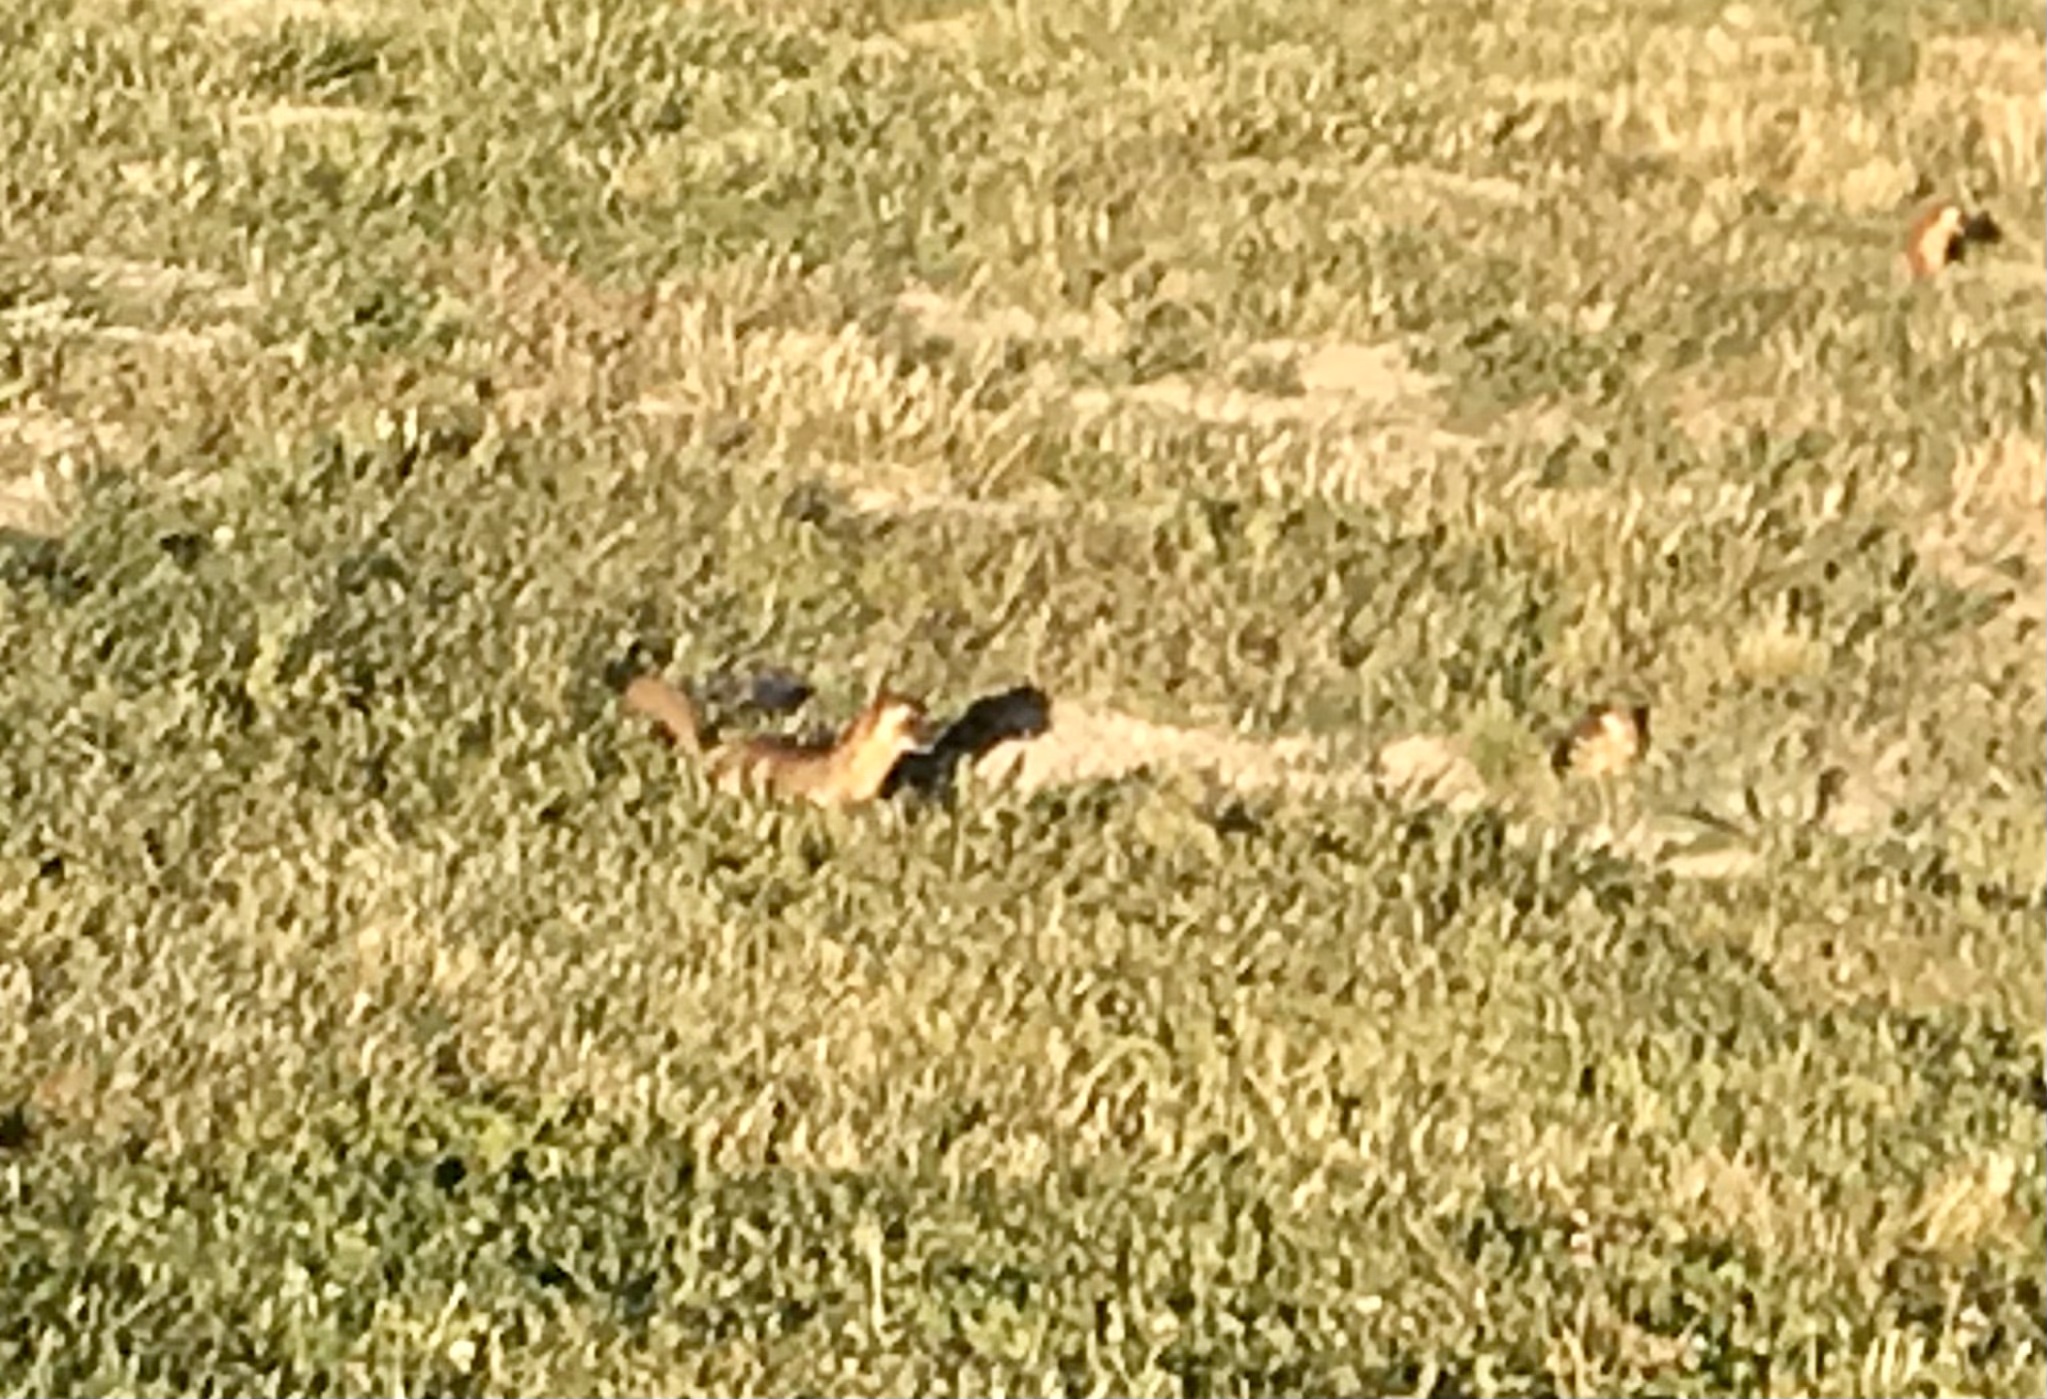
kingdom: Animalia
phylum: Chordata
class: Mammalia
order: Carnivora
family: Mustelidae
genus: Mustela
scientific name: Mustela
